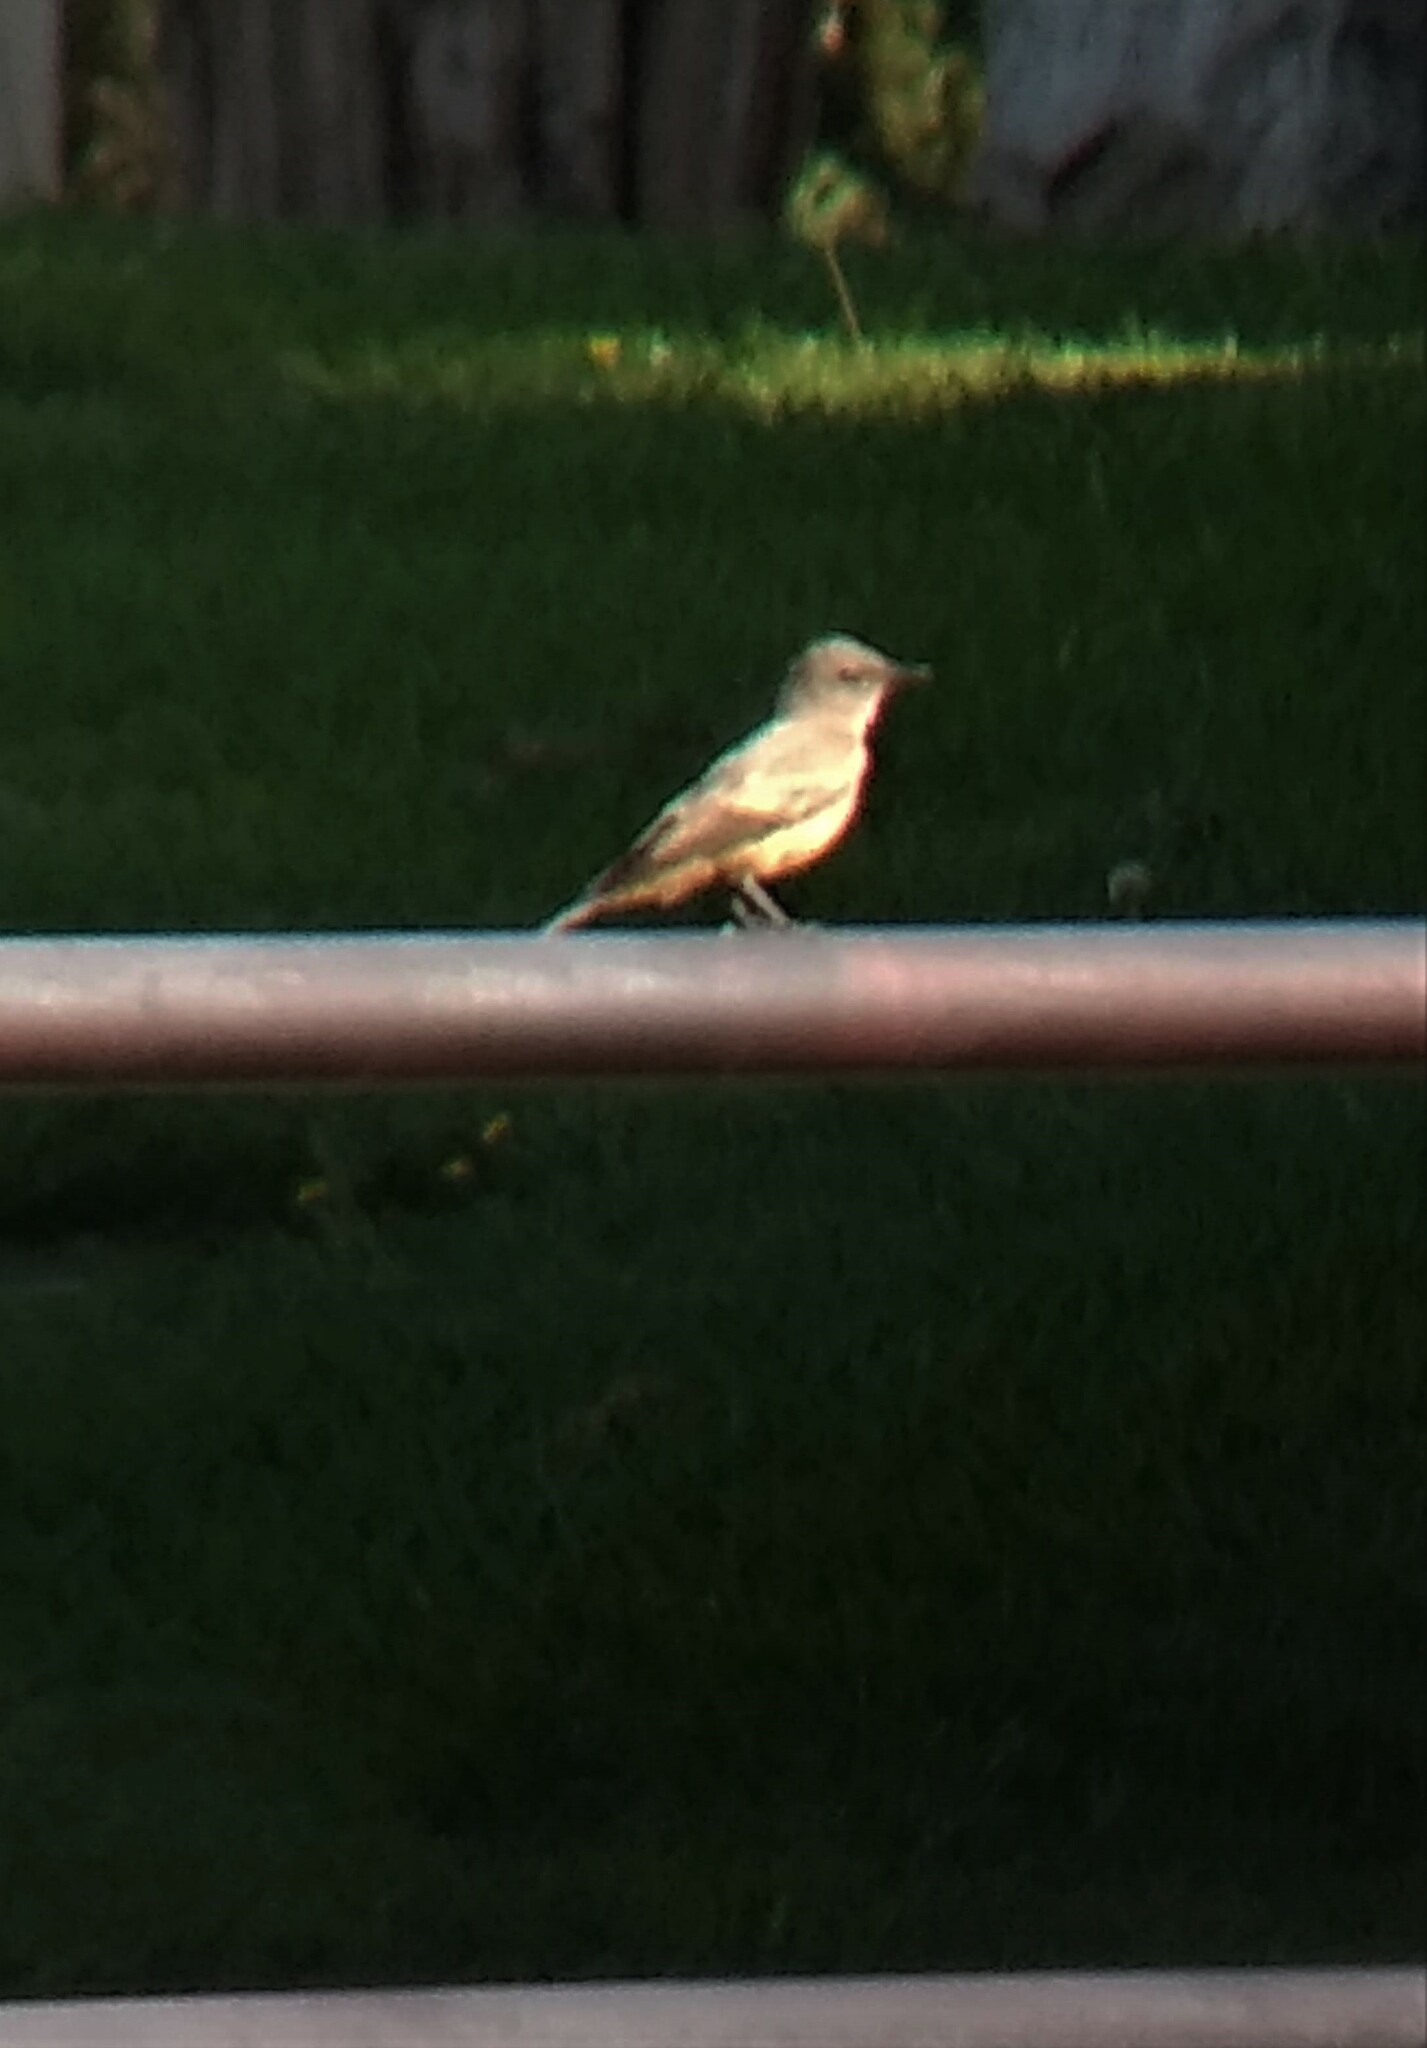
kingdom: Animalia
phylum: Chordata
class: Aves
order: Passeriformes
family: Tyrannidae
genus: Sayornis
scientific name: Sayornis saya
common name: Say's phoebe
